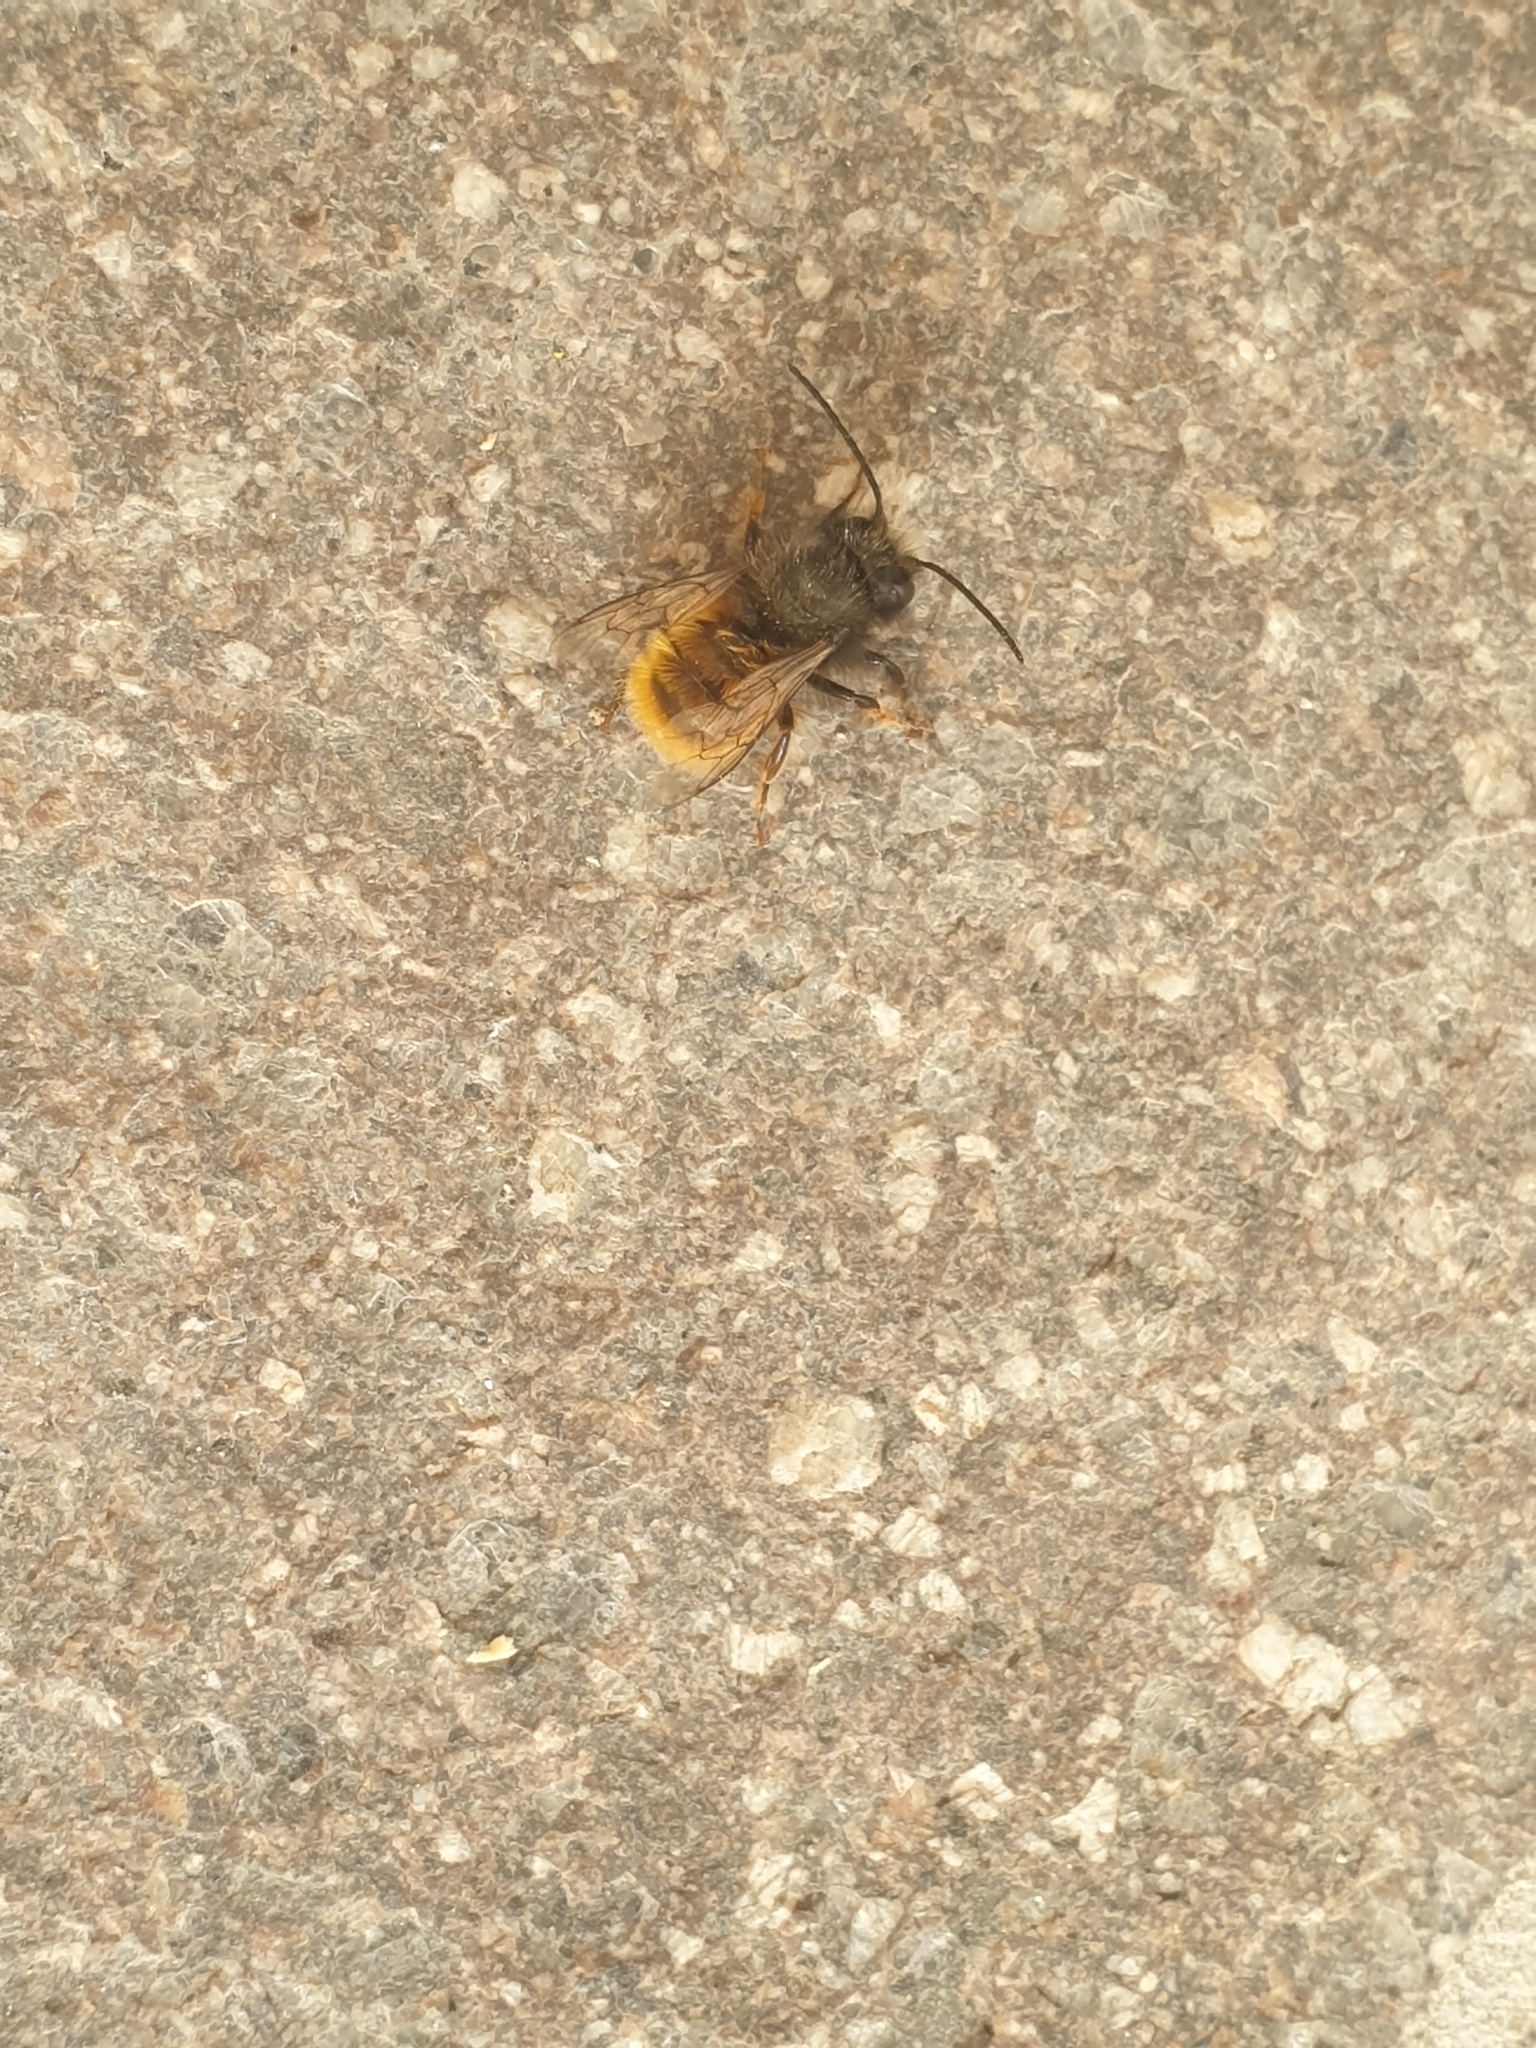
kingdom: Animalia
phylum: Arthropoda
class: Insecta
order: Hymenoptera
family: Megachilidae
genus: Osmia
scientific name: Osmia cornuta
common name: Mason bee
